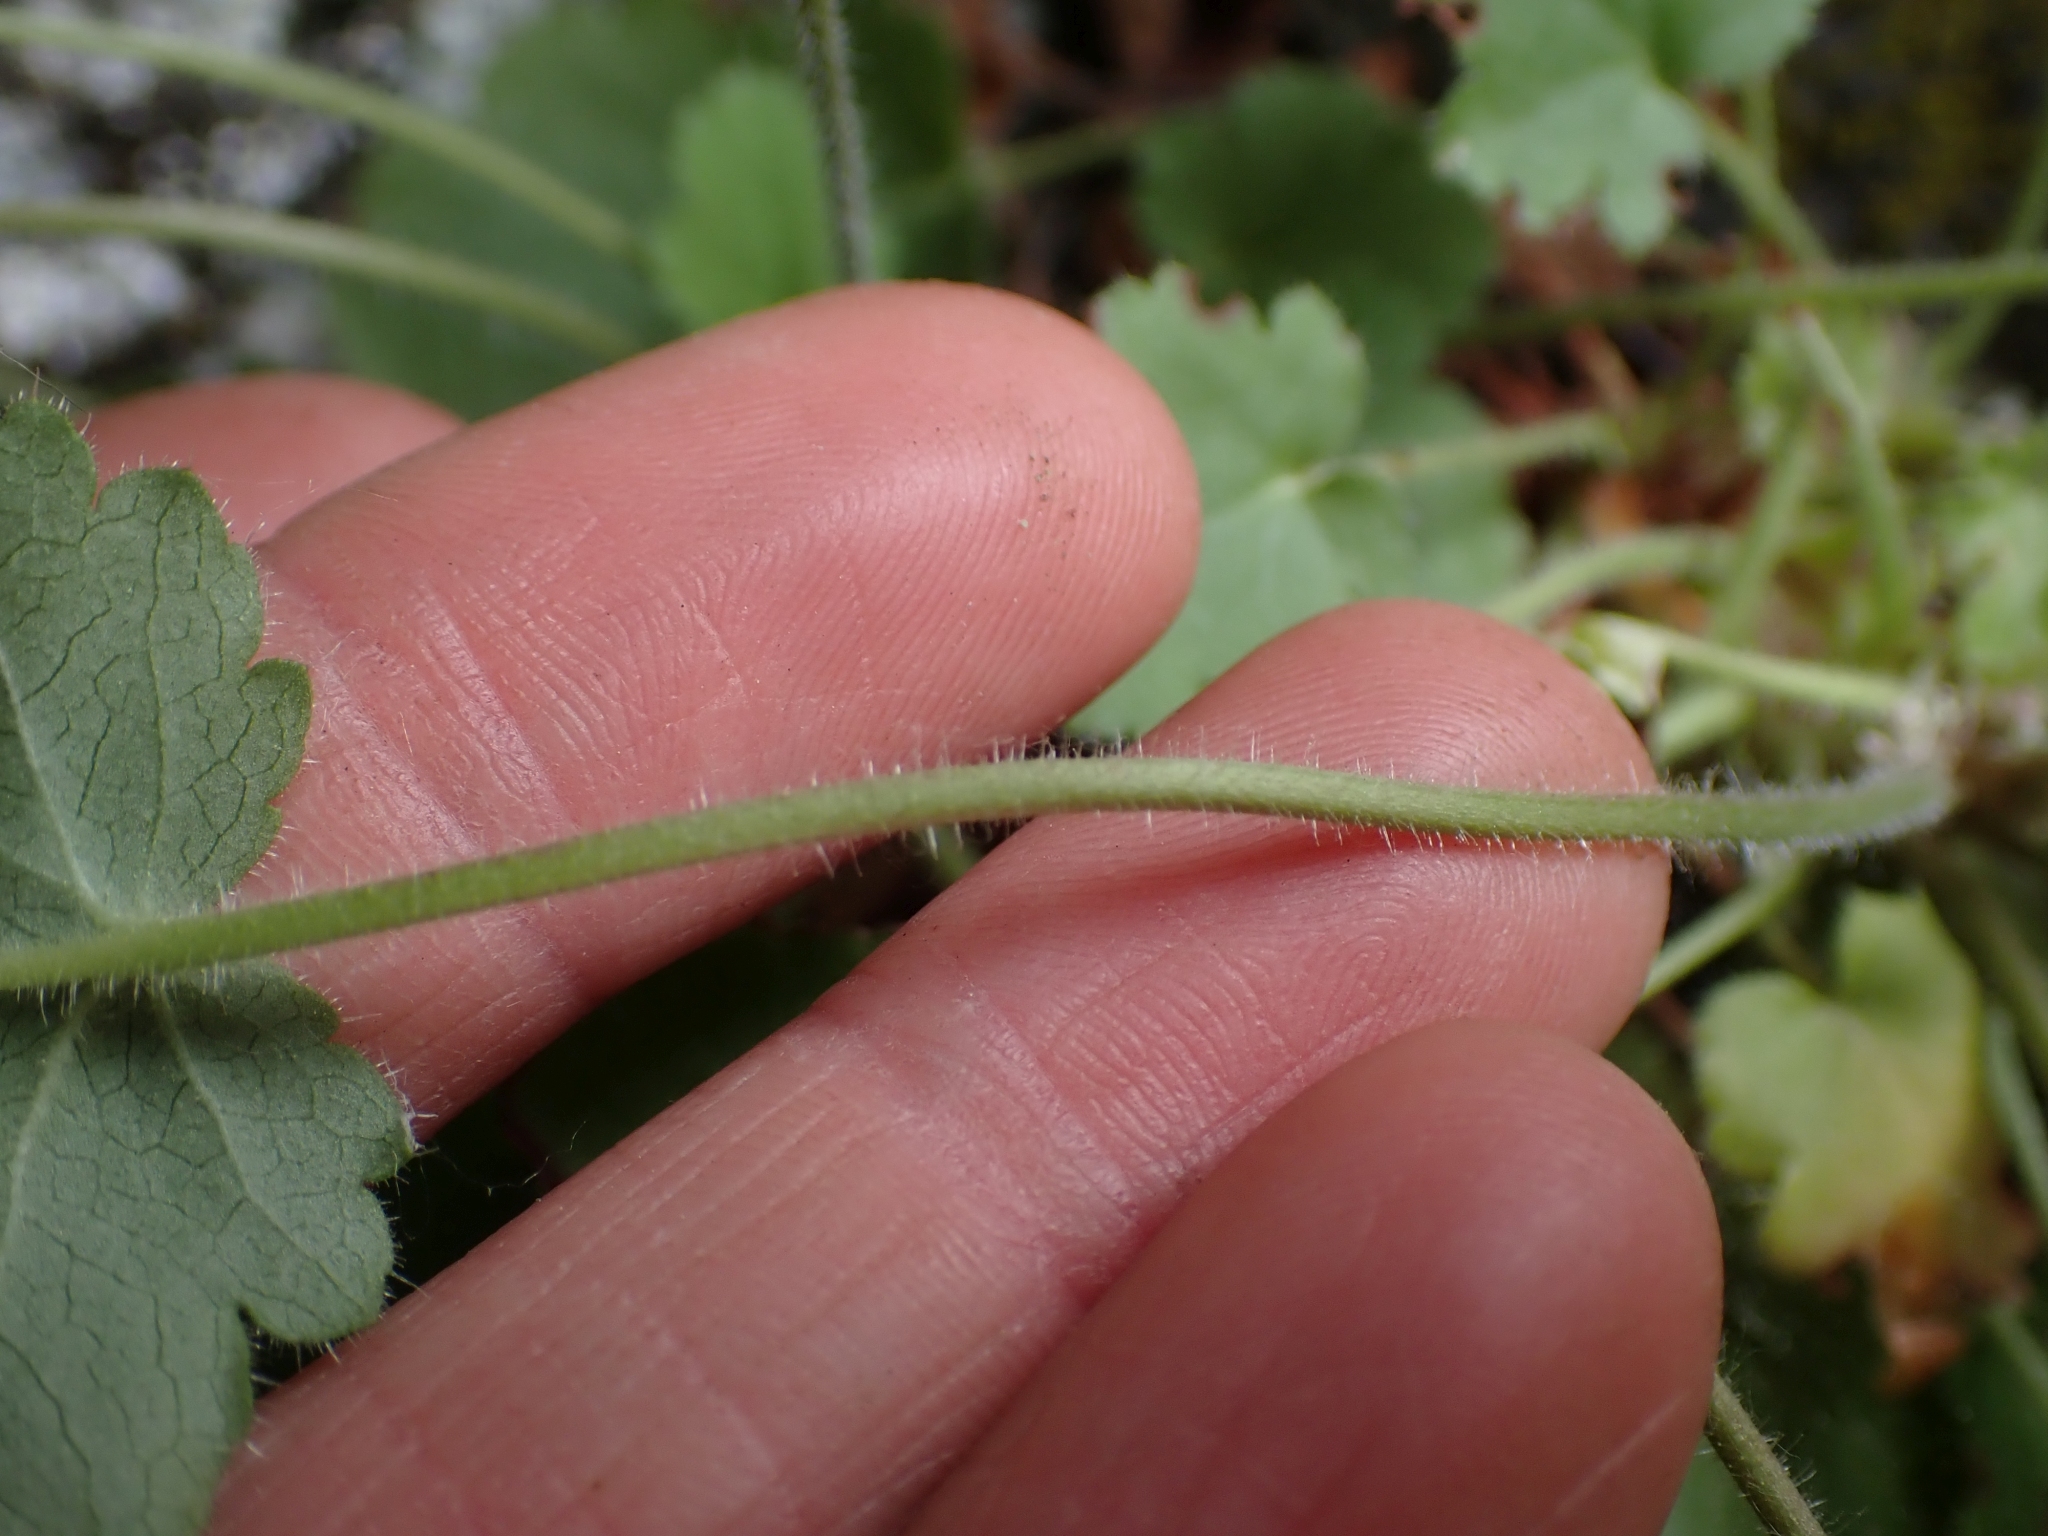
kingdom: Plantae
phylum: Tracheophyta
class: Magnoliopsida
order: Saxifragales
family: Saxifragaceae
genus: Heuchera
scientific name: Heuchera cylindrica
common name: Mat alumroot
